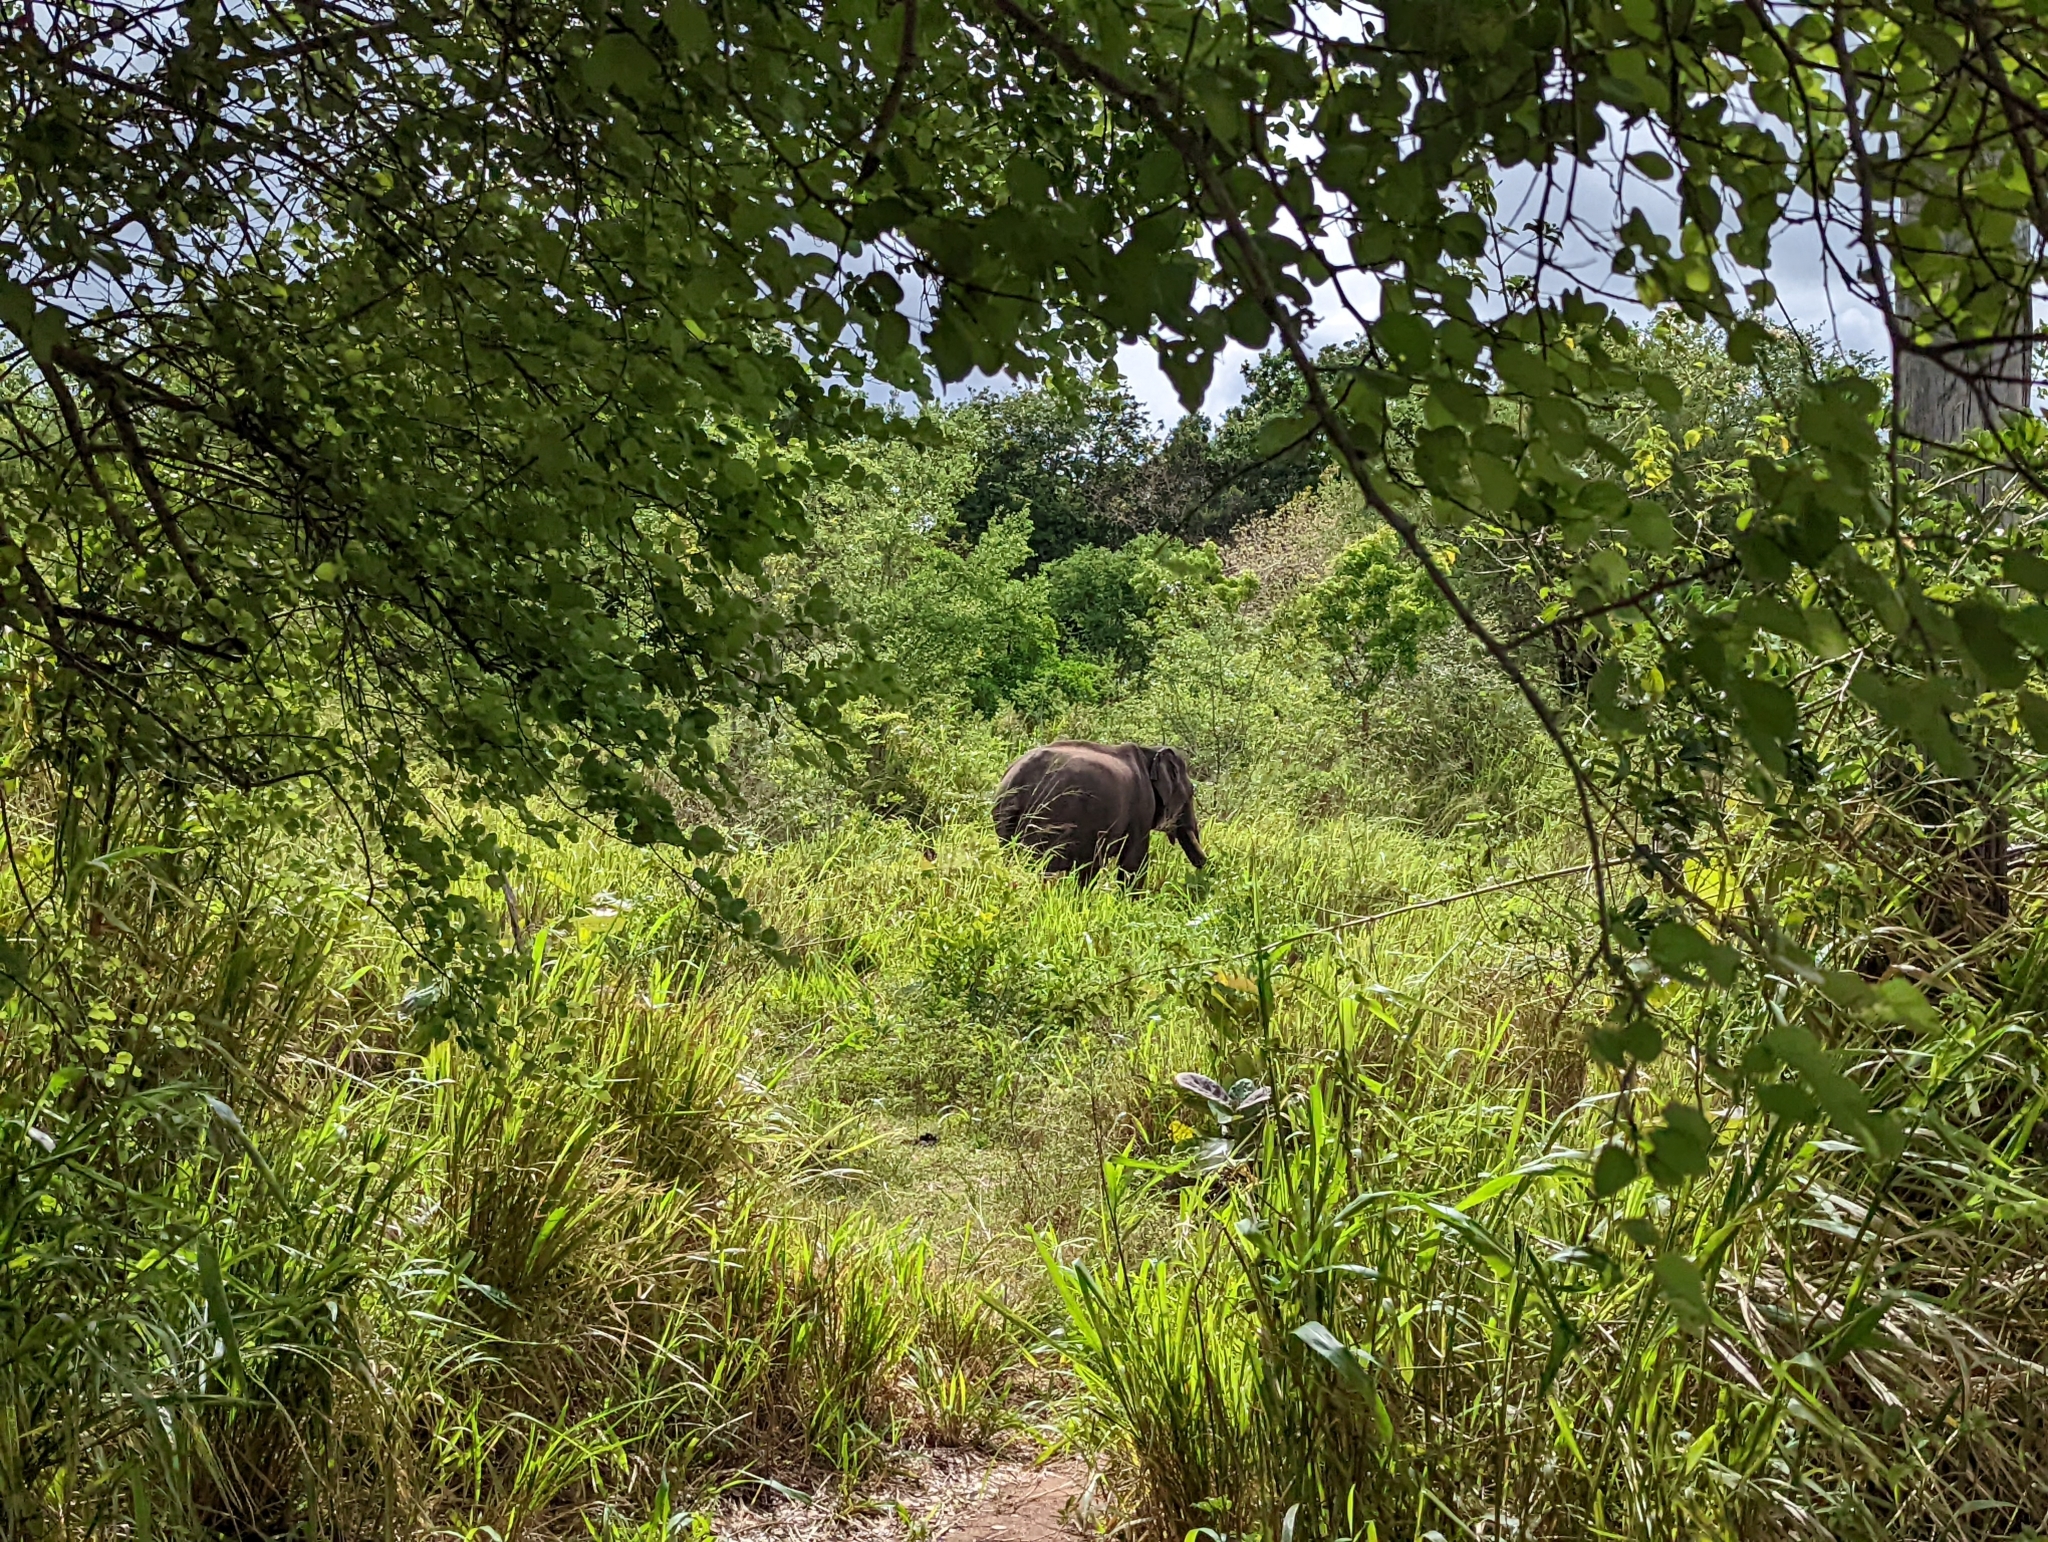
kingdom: Animalia
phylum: Chordata
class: Mammalia
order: Proboscidea
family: Elephantidae
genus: Elephas
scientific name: Elephas maximus
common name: Asian elephant
